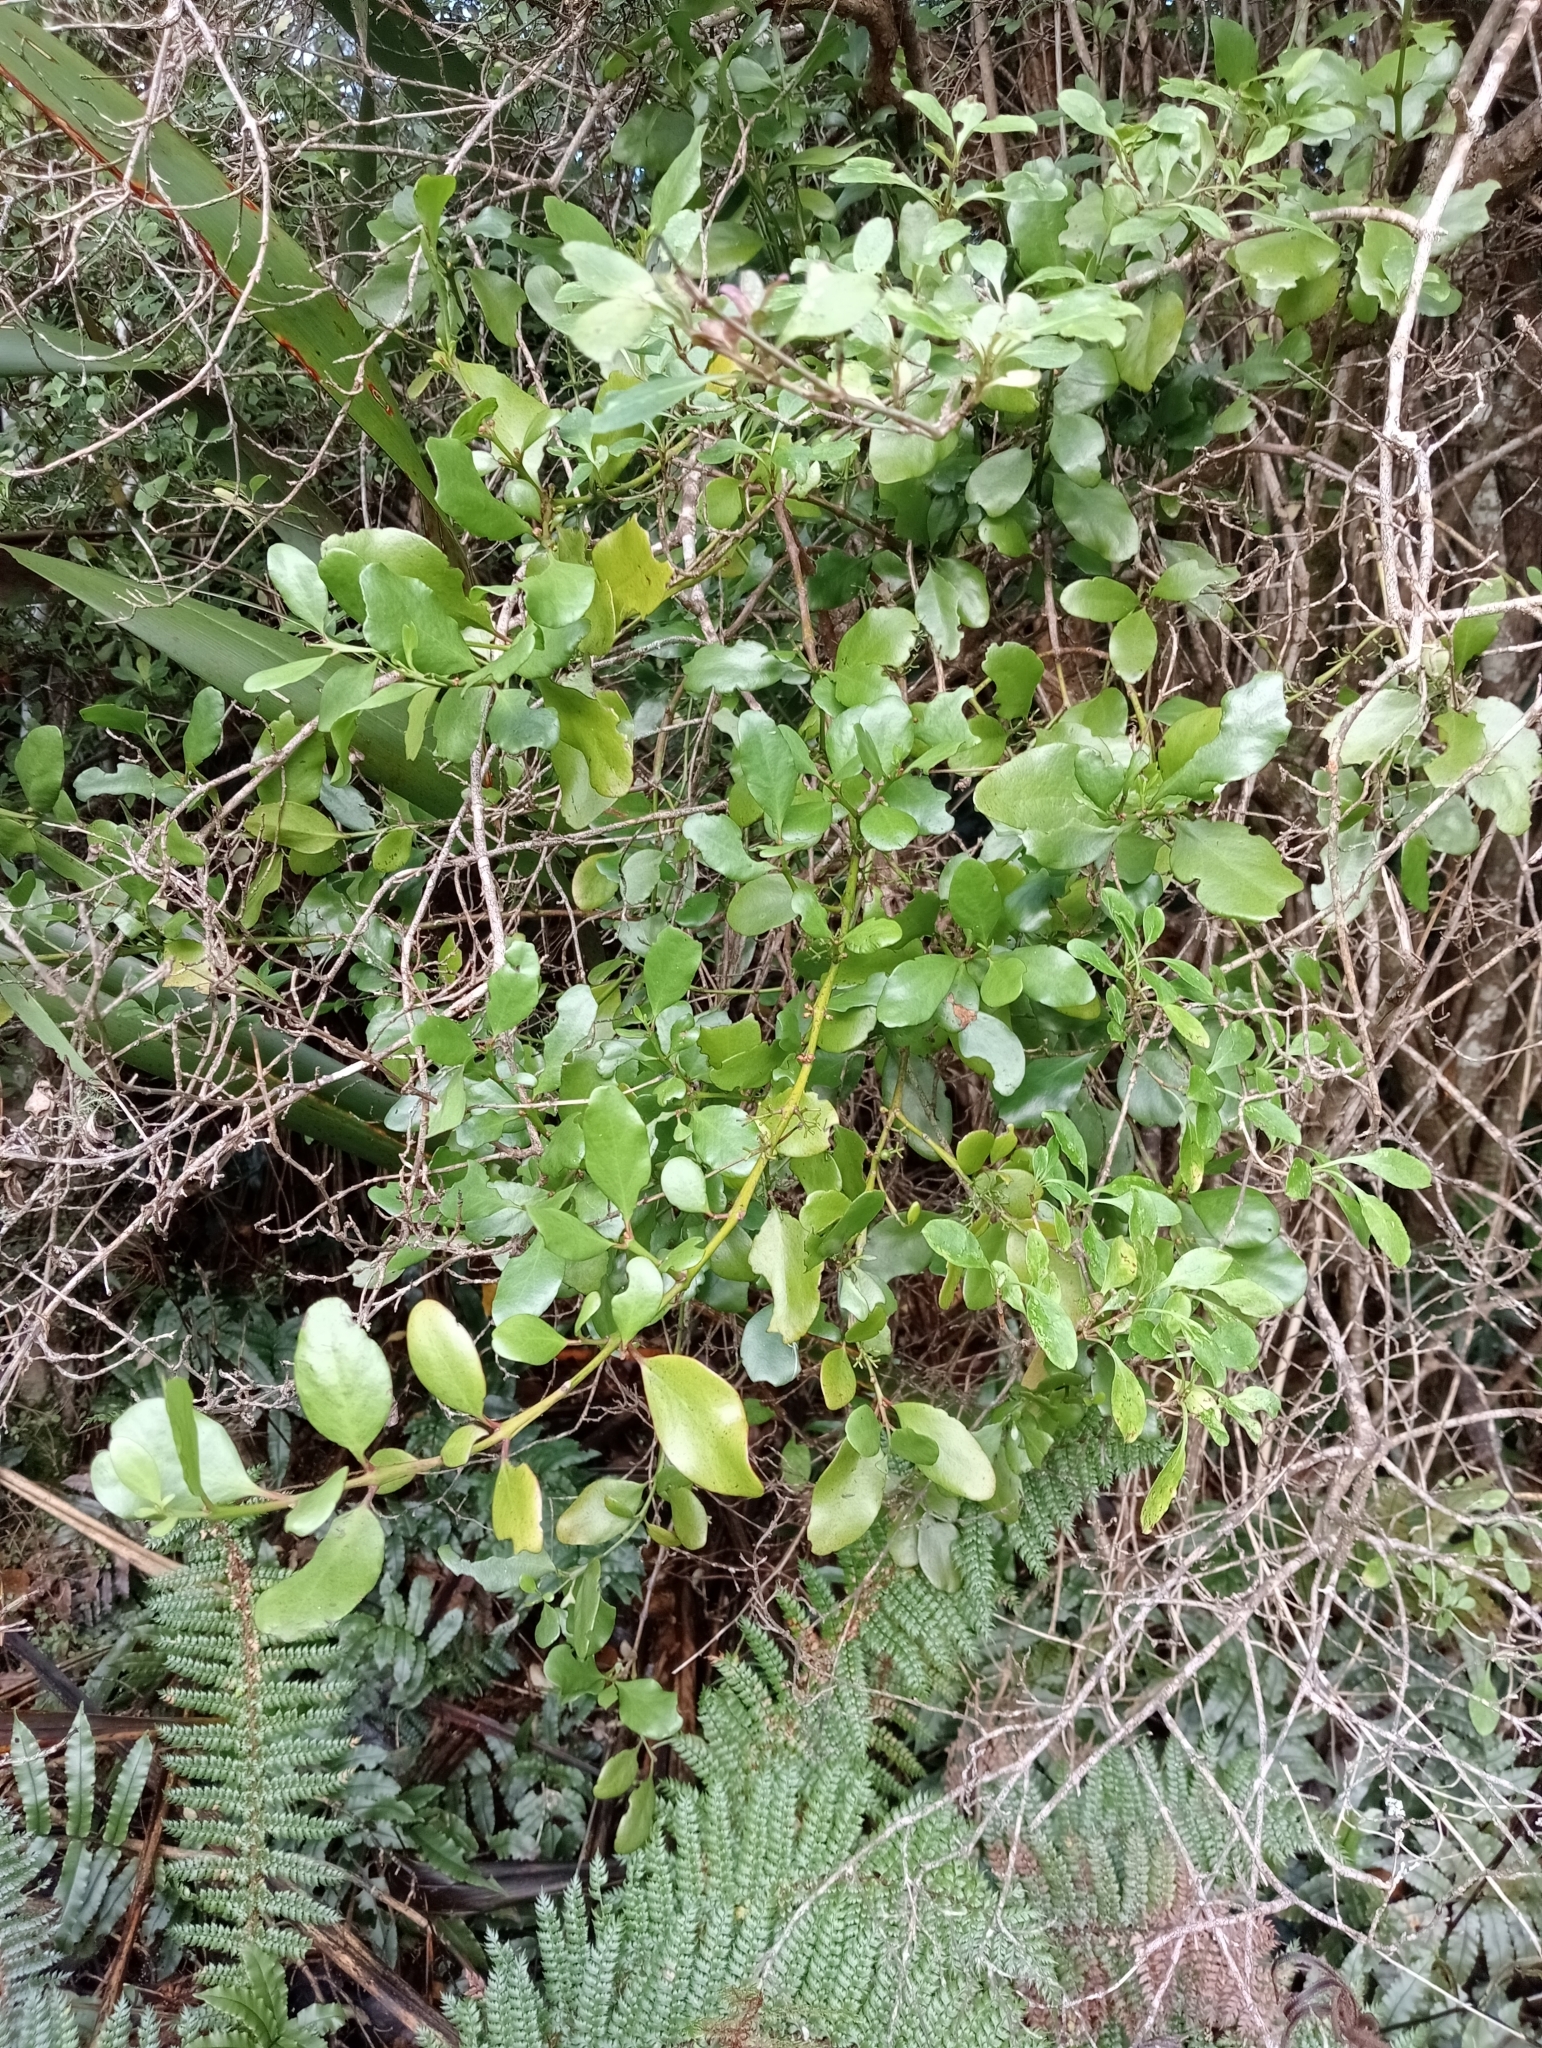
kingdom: Plantae
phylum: Tracheophyta
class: Magnoliopsida
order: Santalales
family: Loranthaceae
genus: Ileostylus
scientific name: Ileostylus micranthus
